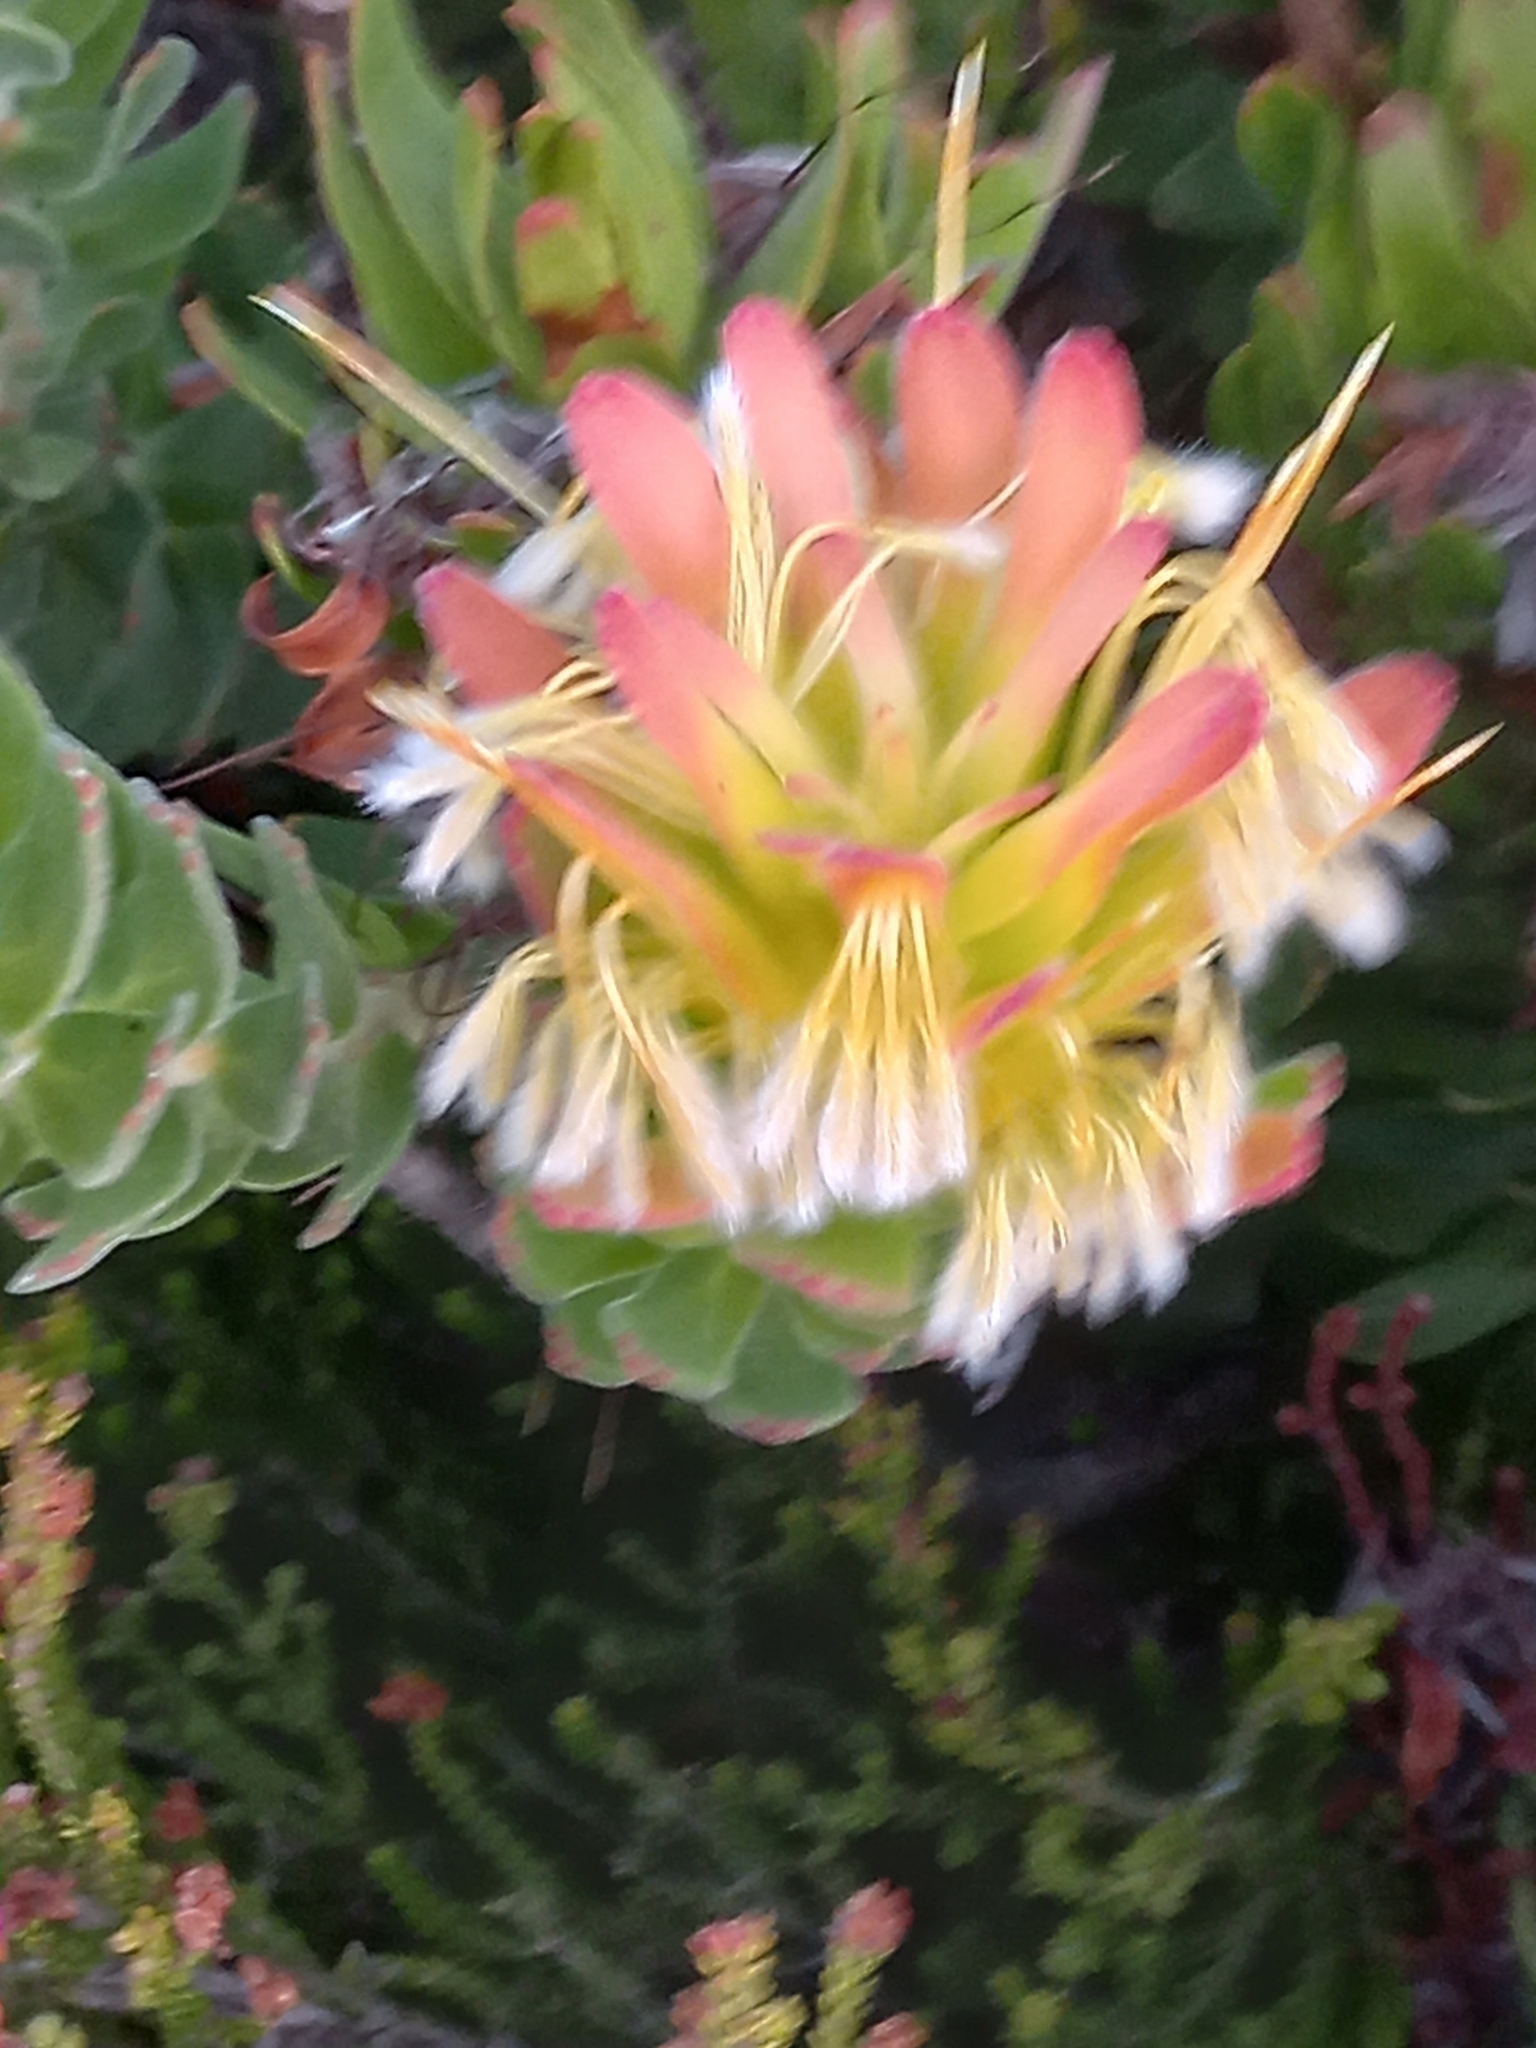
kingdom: Plantae
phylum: Tracheophyta
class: Magnoliopsida
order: Proteales
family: Proteaceae
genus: Mimetes
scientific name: Mimetes cucullatus
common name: Common pagoda
